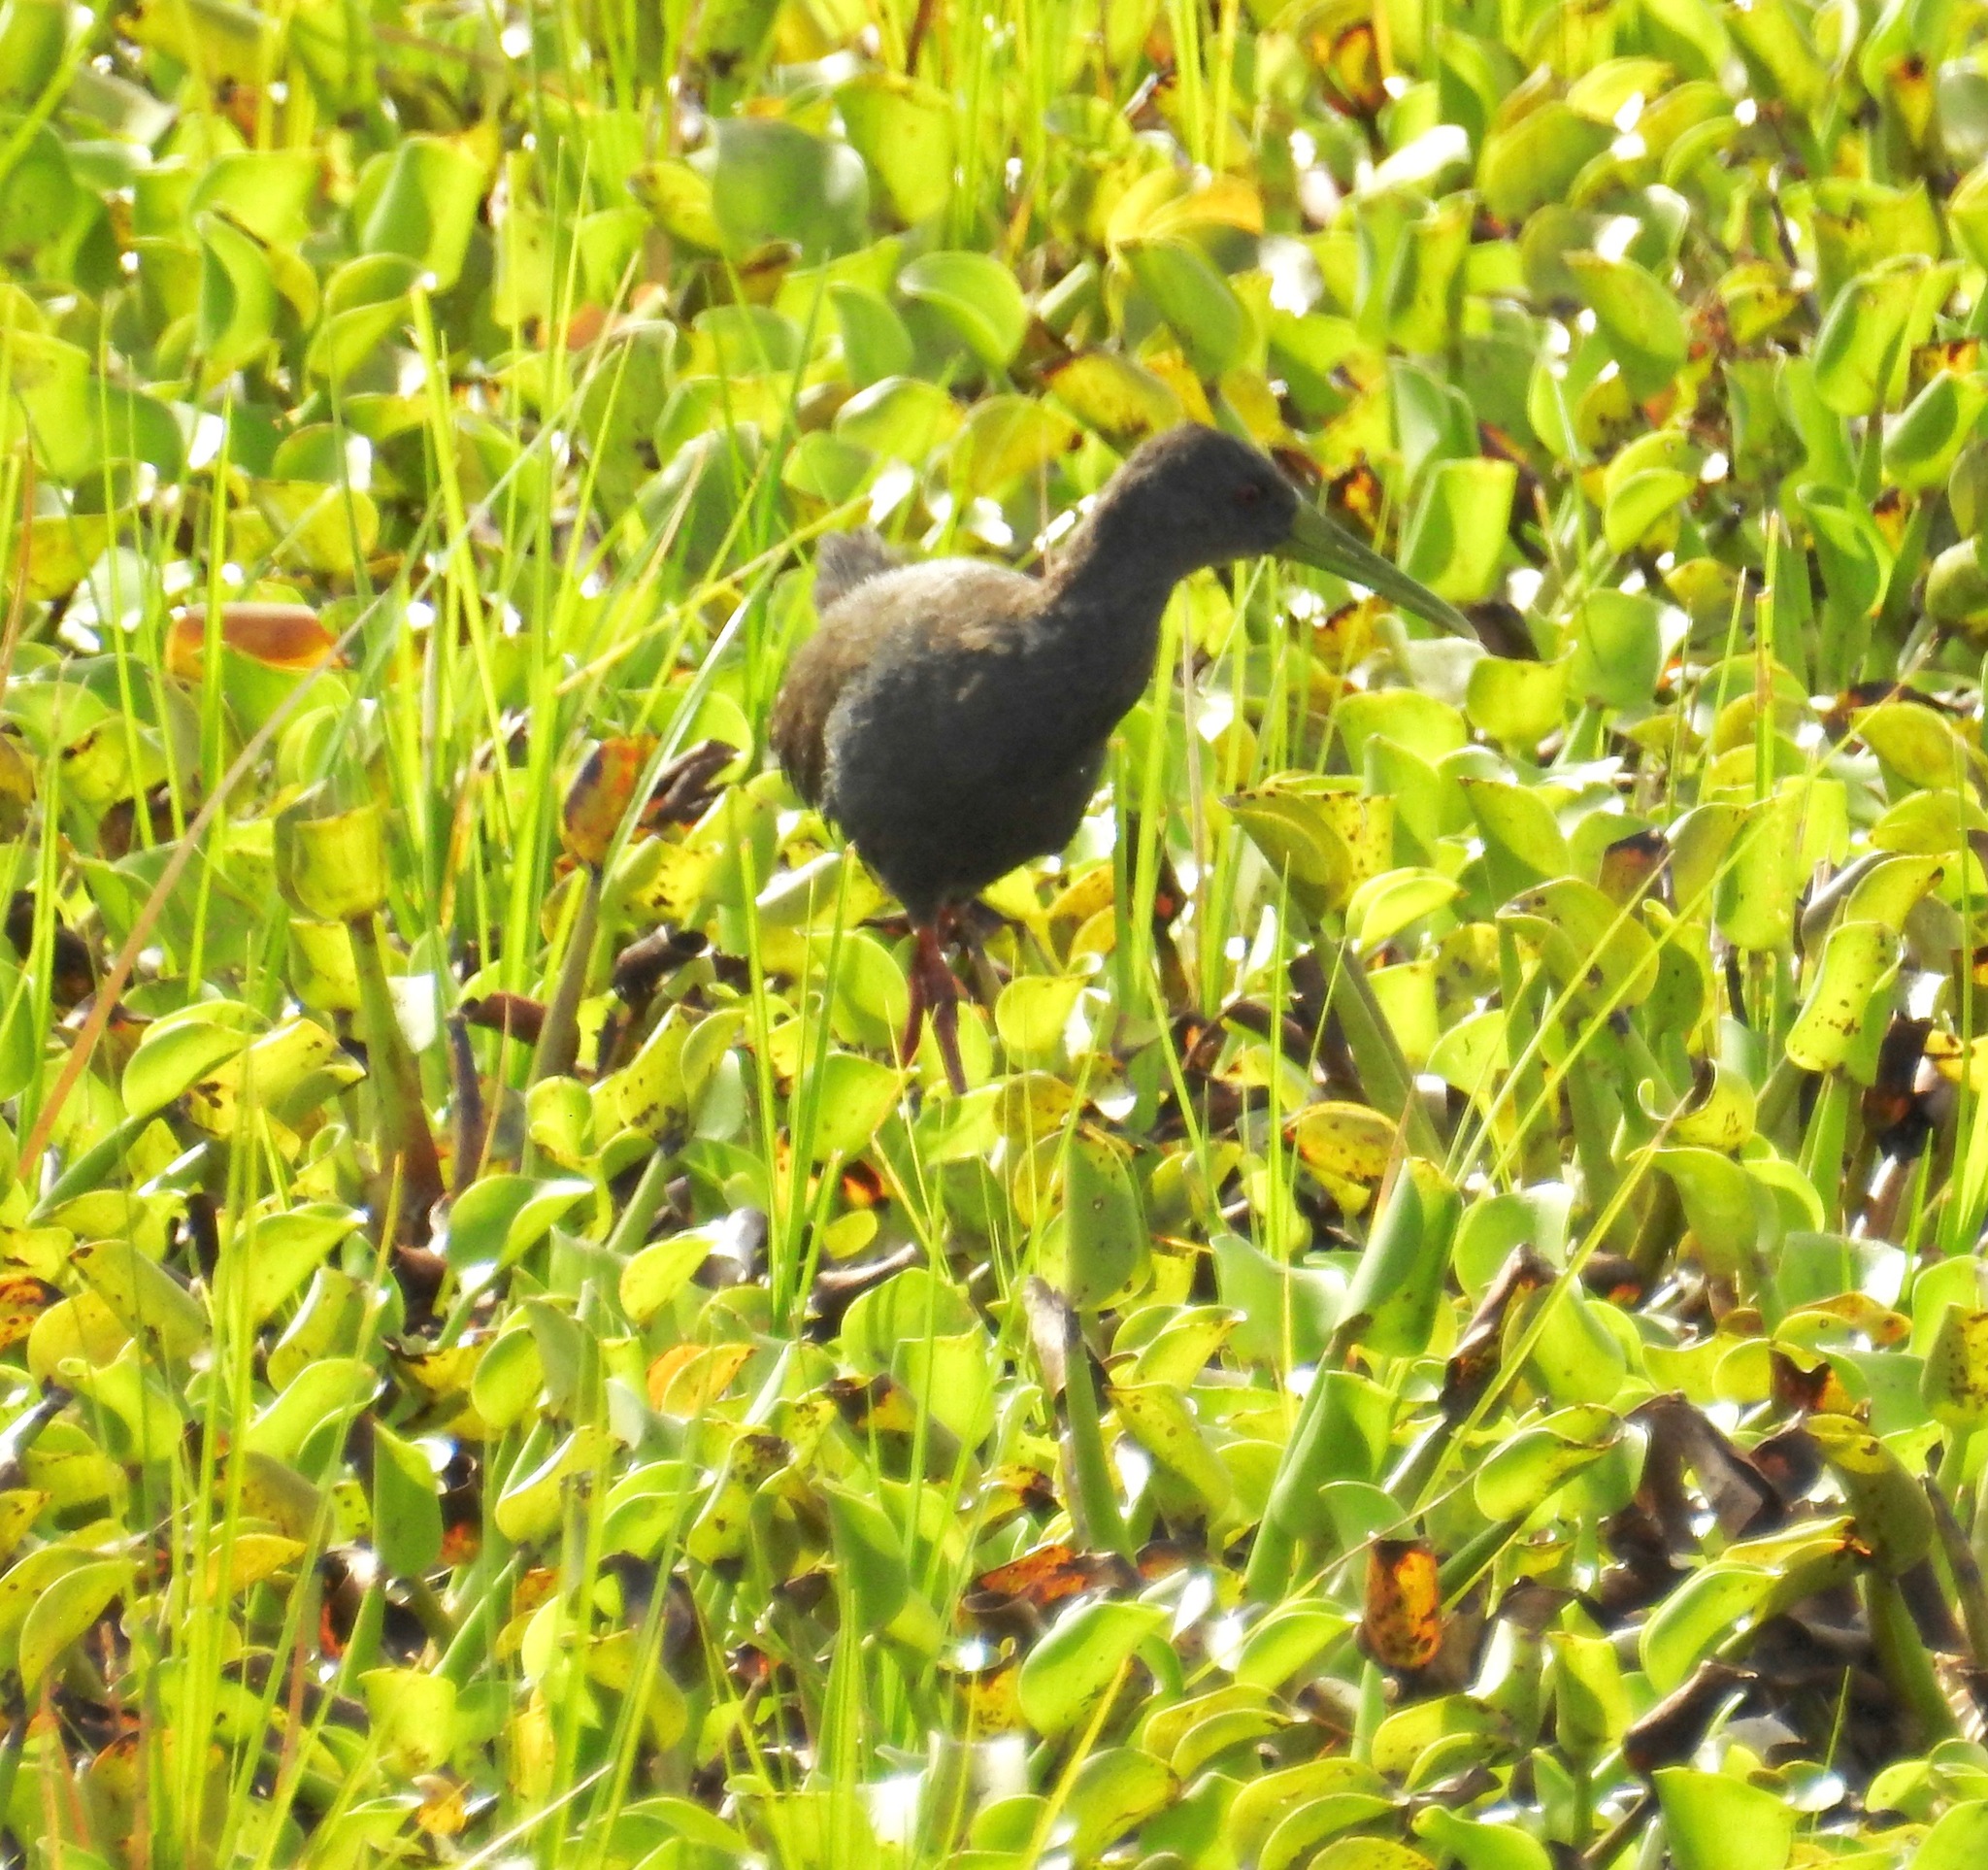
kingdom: Animalia
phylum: Chordata
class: Aves
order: Gruiformes
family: Rallidae
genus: Pardirallus
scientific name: Pardirallus nigricans
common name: Blackish rail
